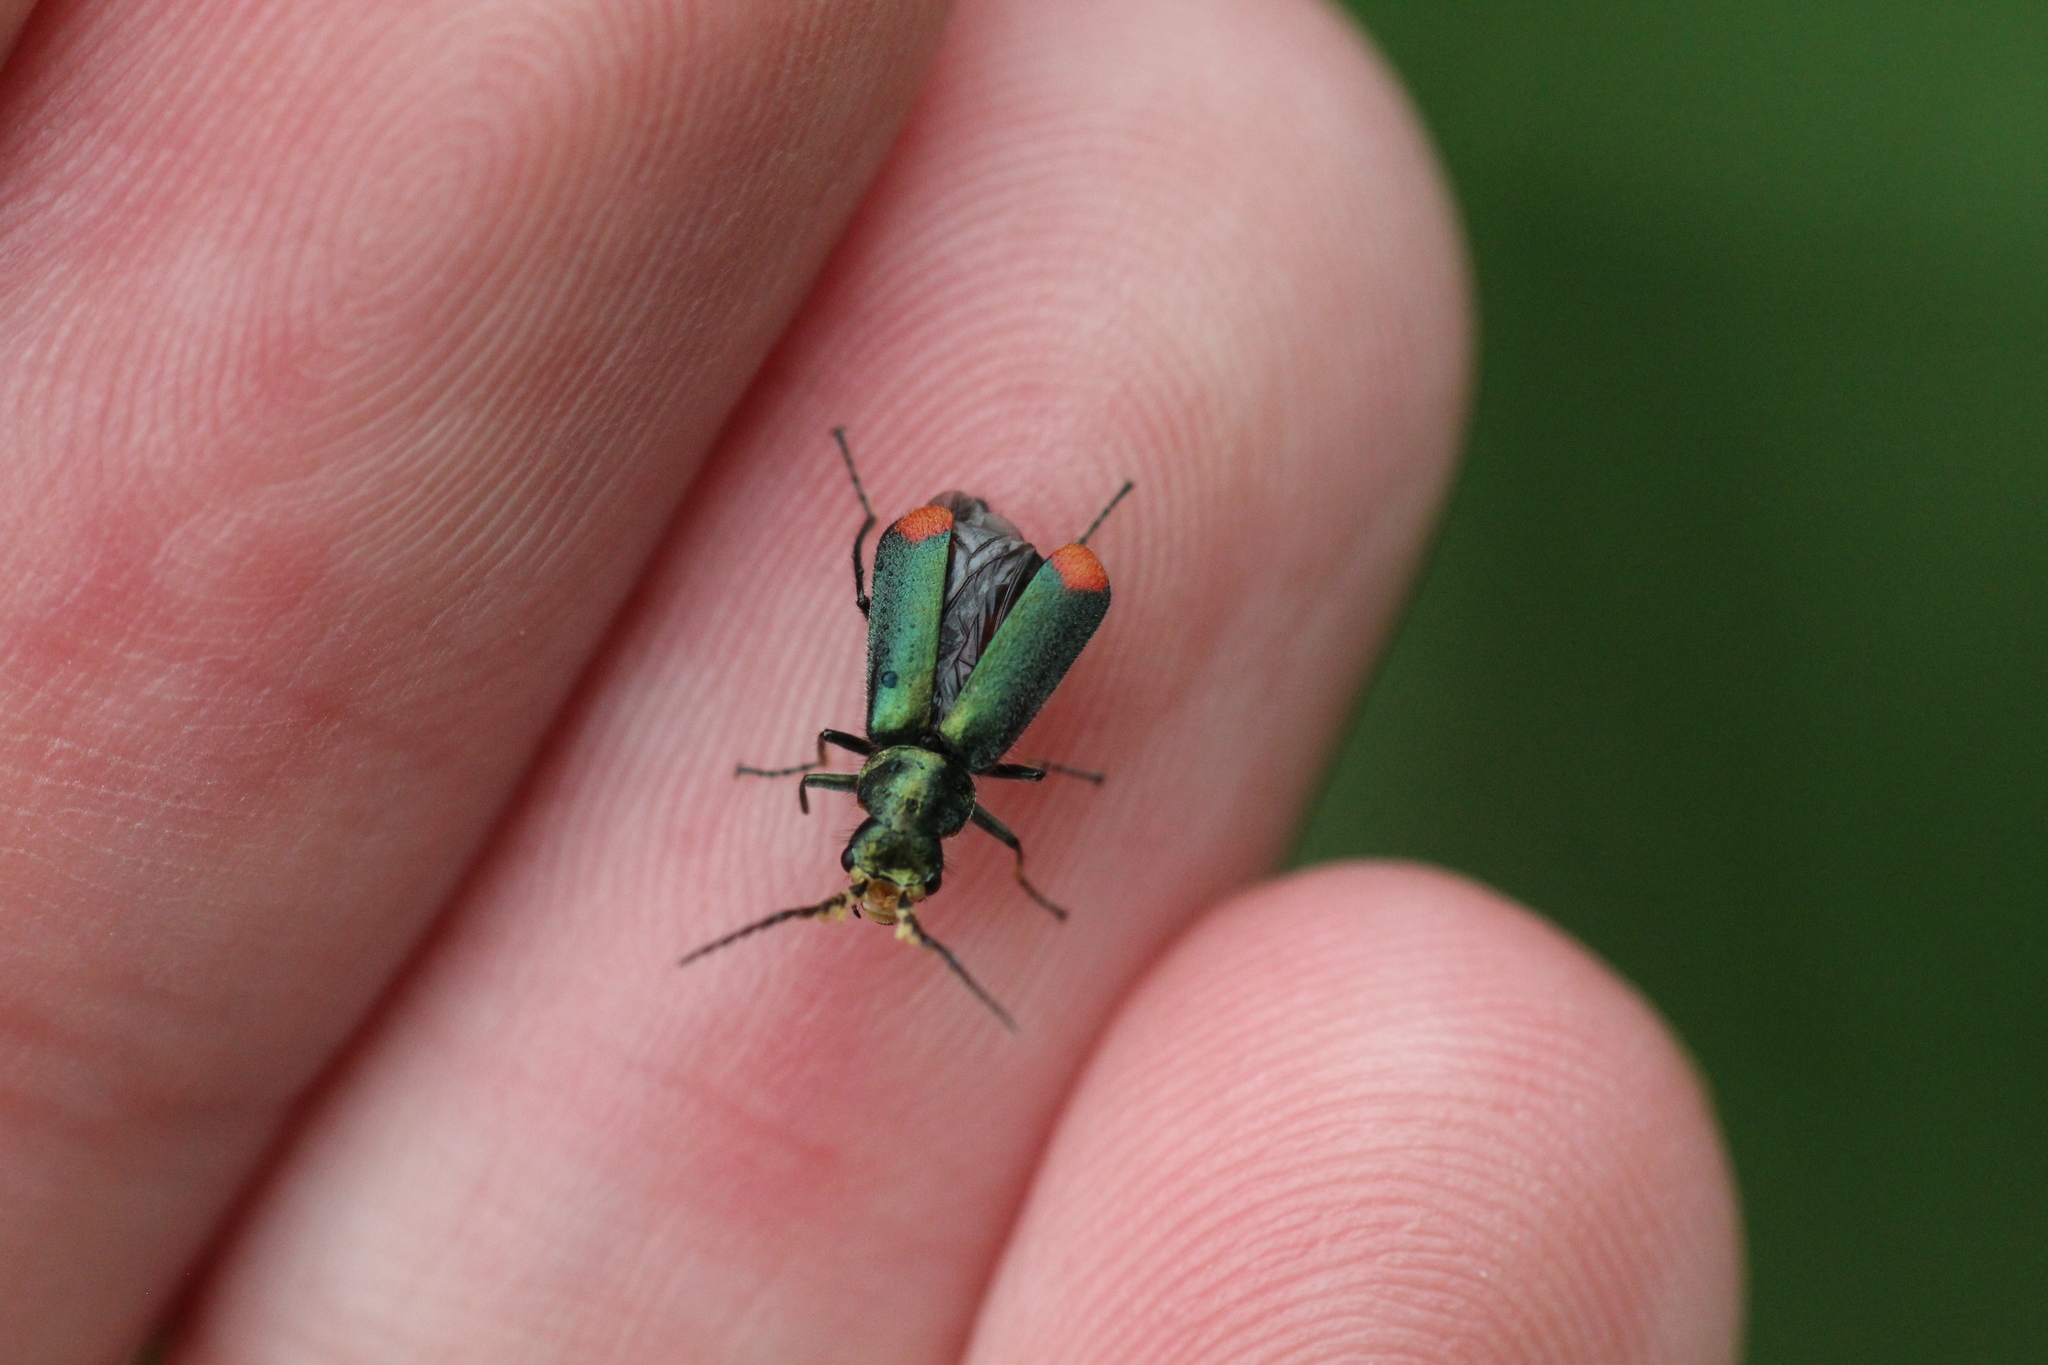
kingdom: Animalia
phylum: Arthropoda
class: Insecta
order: Coleoptera
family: Melyridae
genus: Malachius
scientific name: Malachius bipustulatus
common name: Malachite beetle
